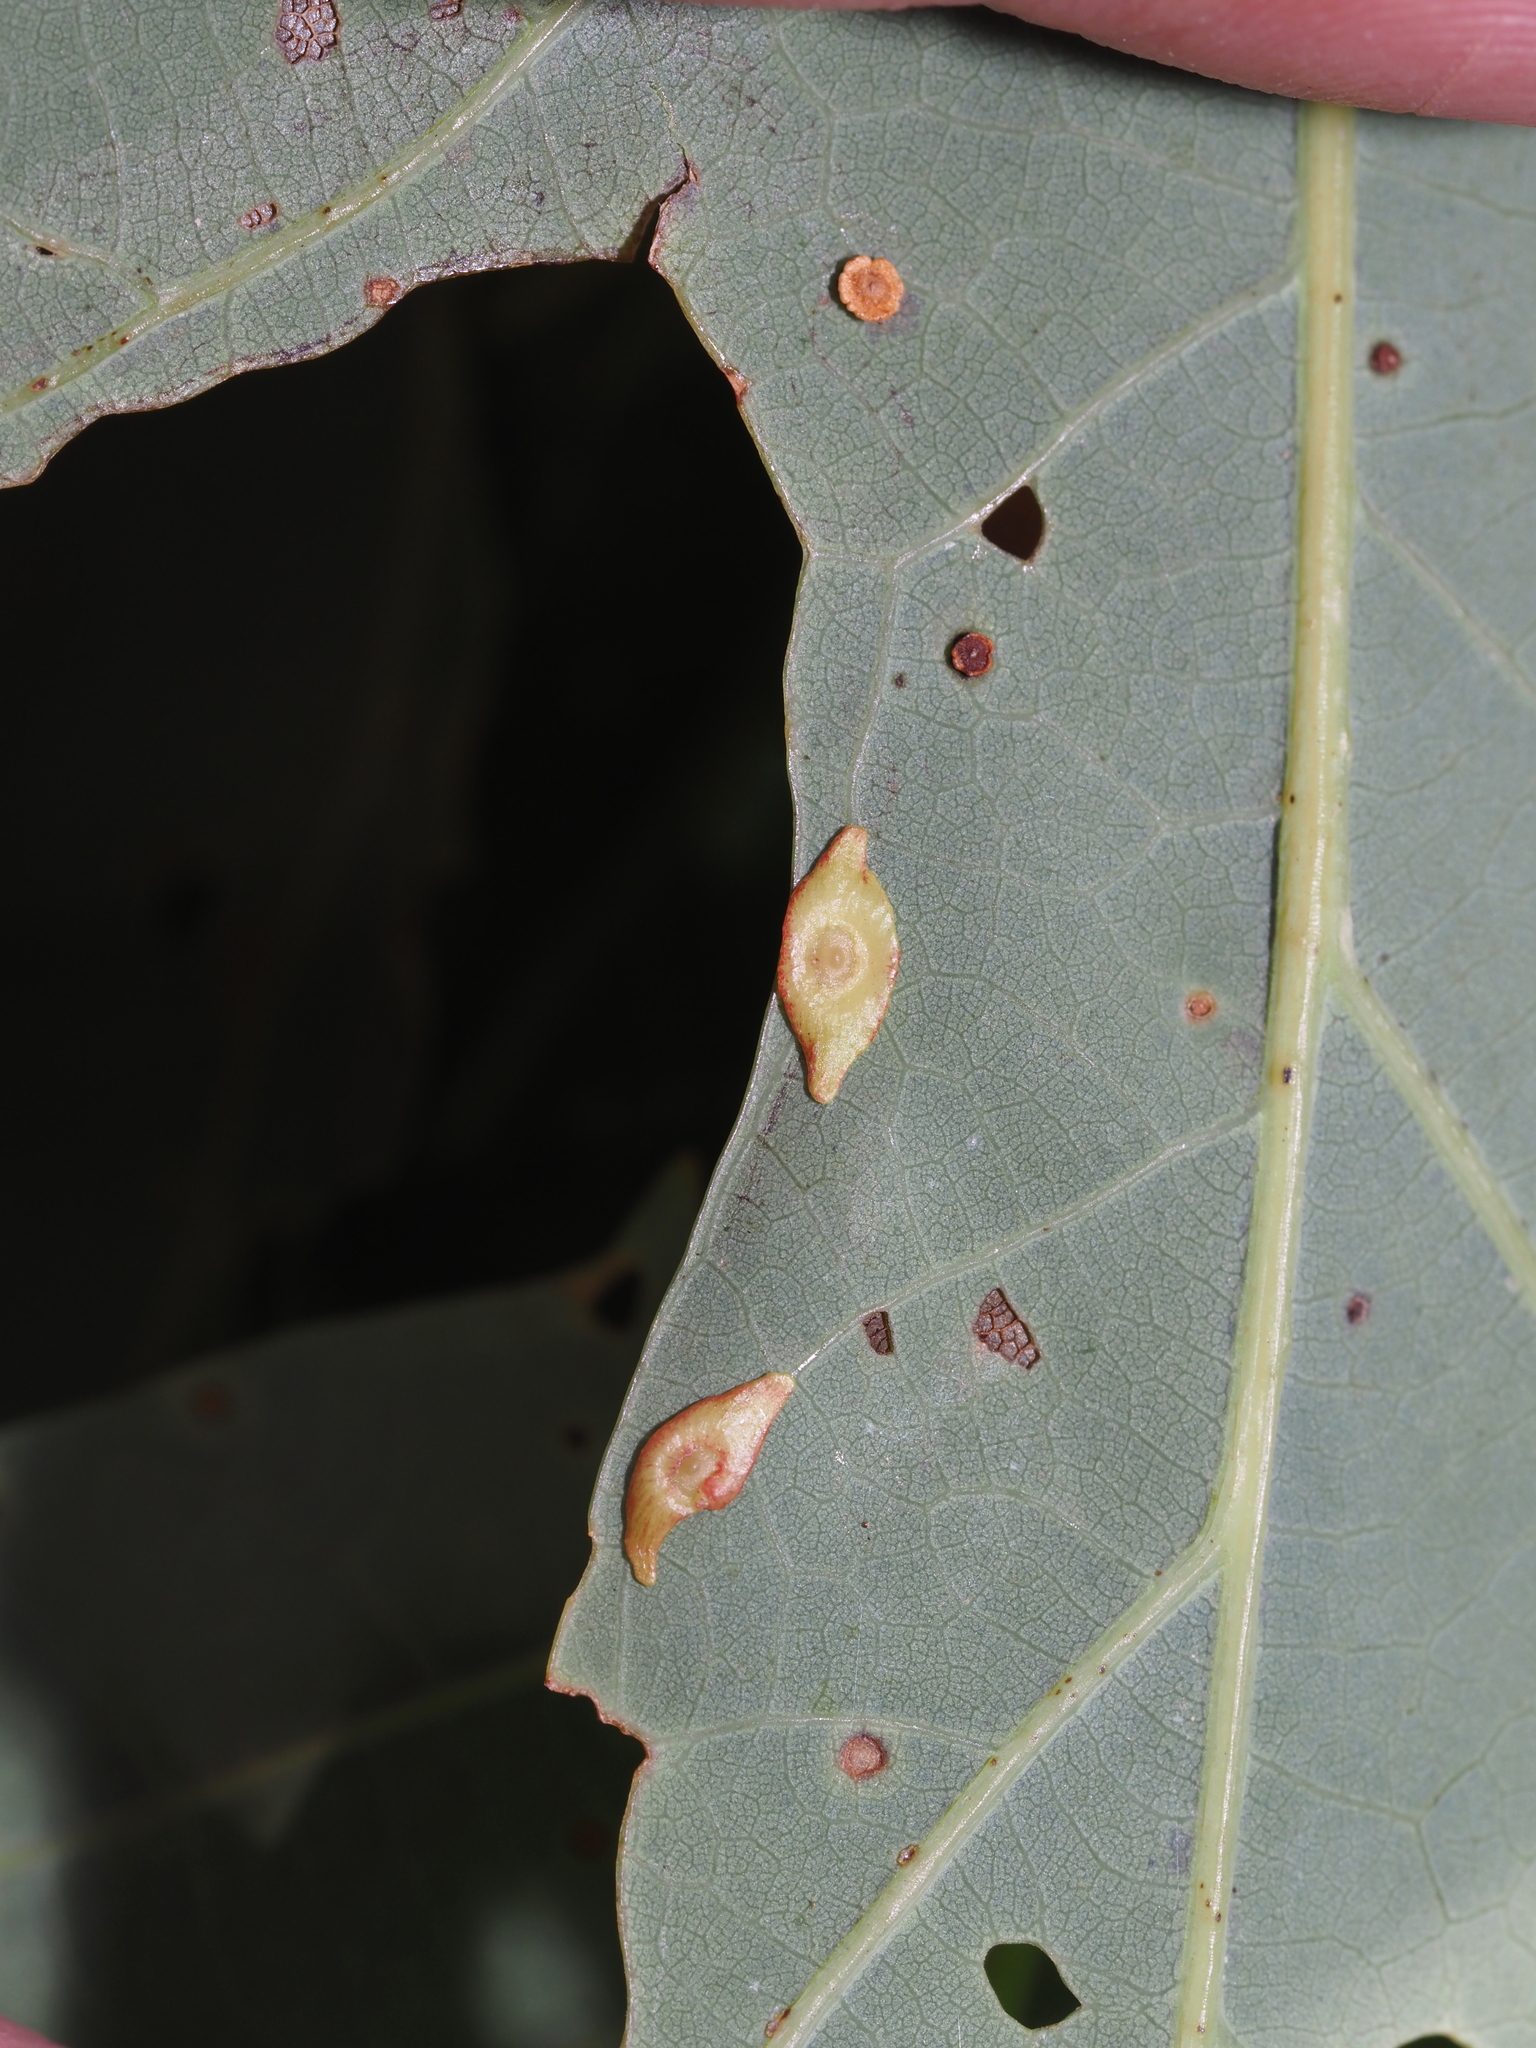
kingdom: Animalia
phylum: Arthropoda
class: Insecta
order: Hymenoptera
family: Cynipidae
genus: Phylloteras
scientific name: Phylloteras
